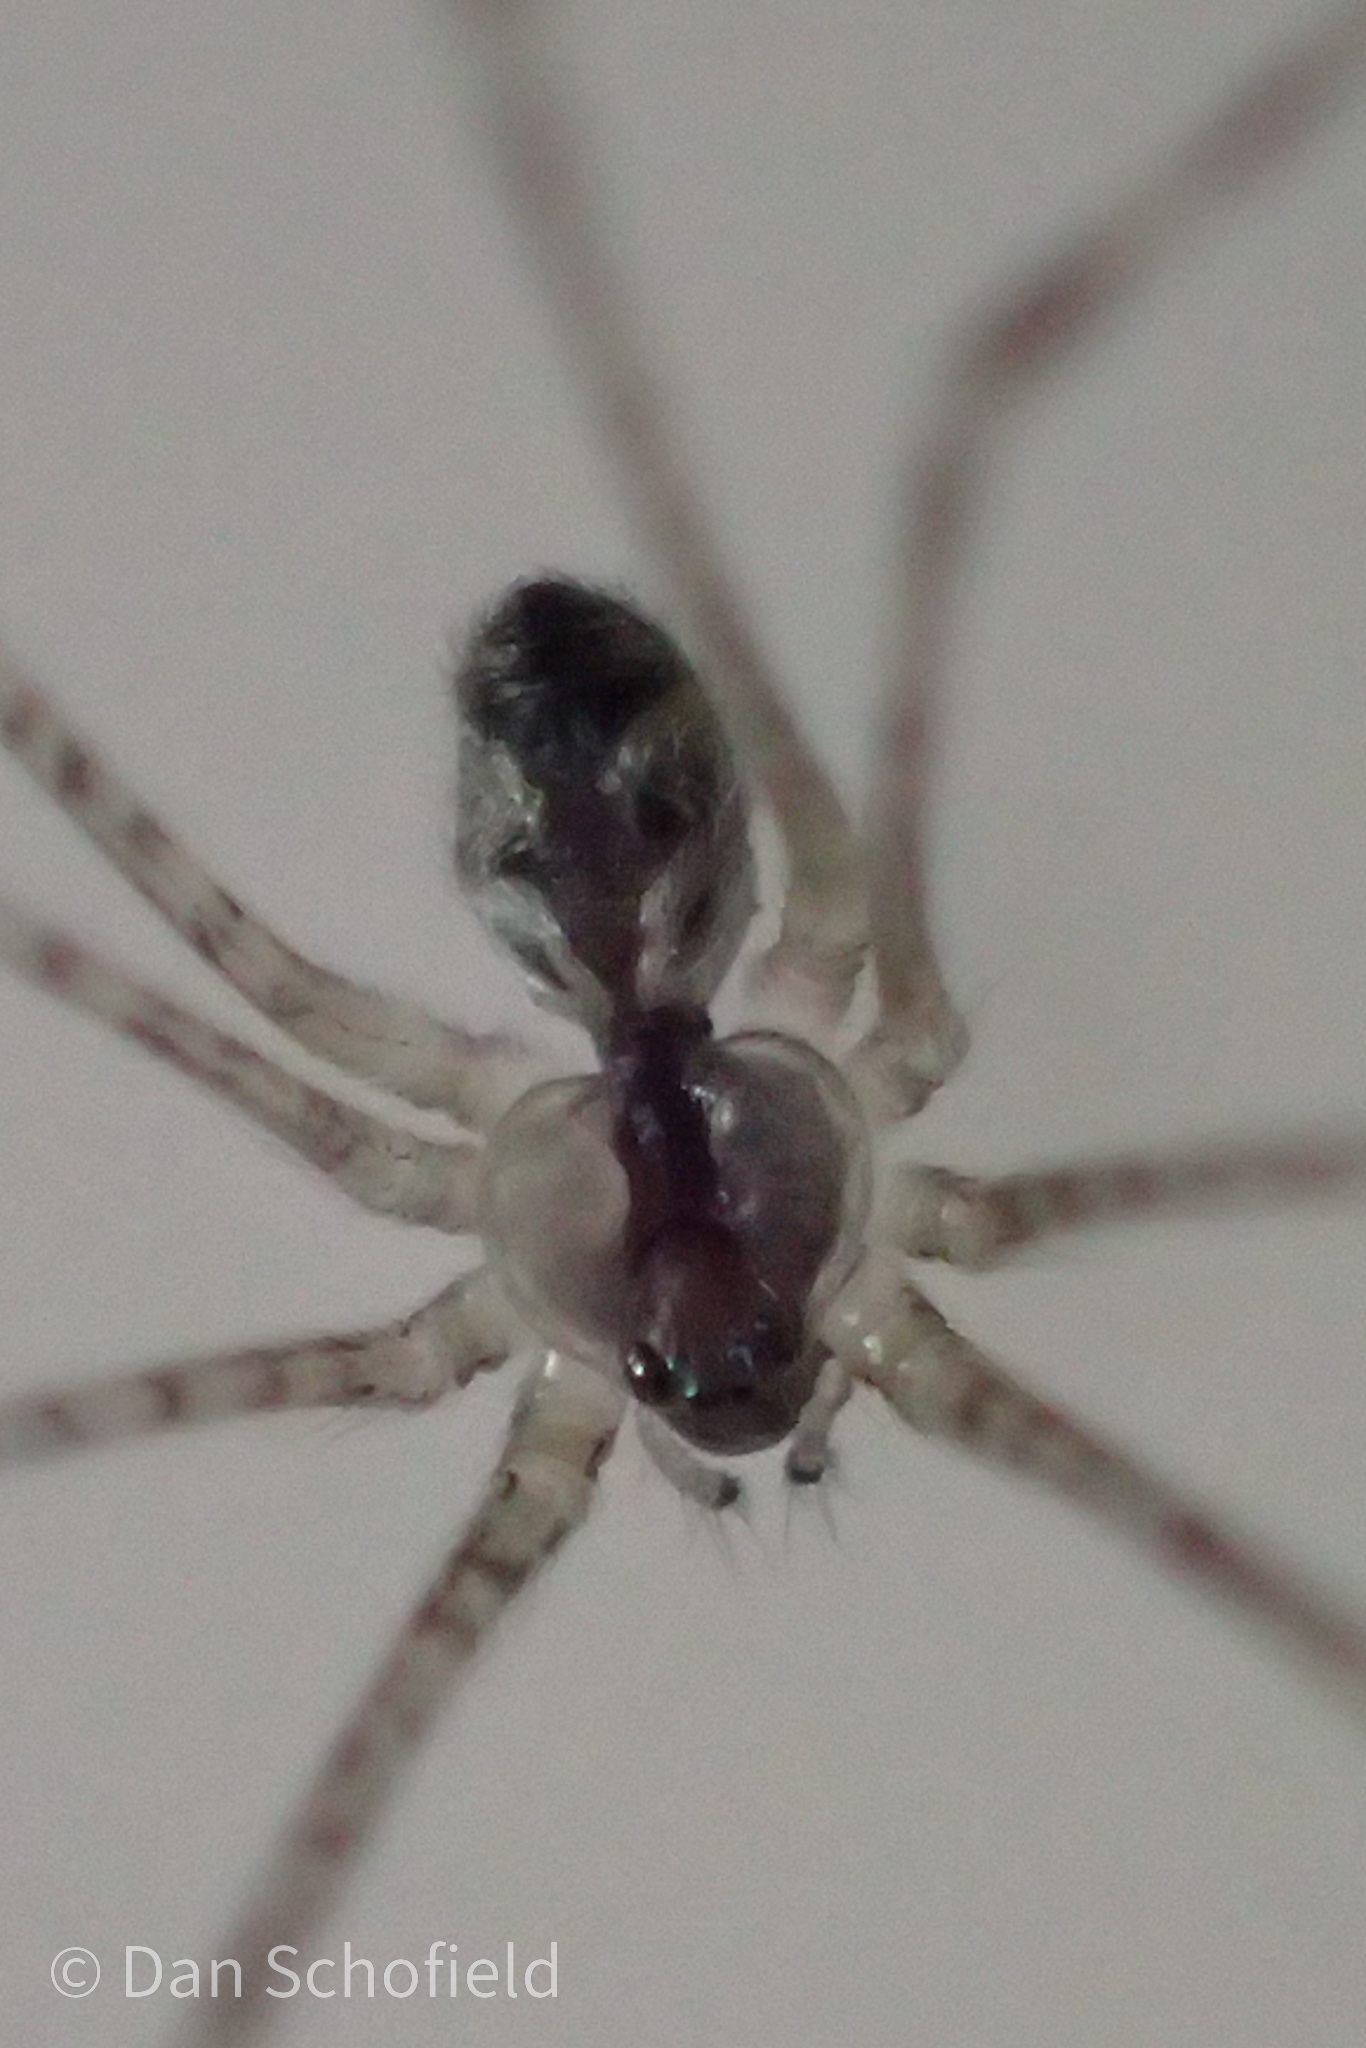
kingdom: Animalia
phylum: Arthropoda
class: Arachnida
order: Araneae
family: Pholcidae
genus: Crossopriza
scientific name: Crossopriza lyoni
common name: Cellar spiders
